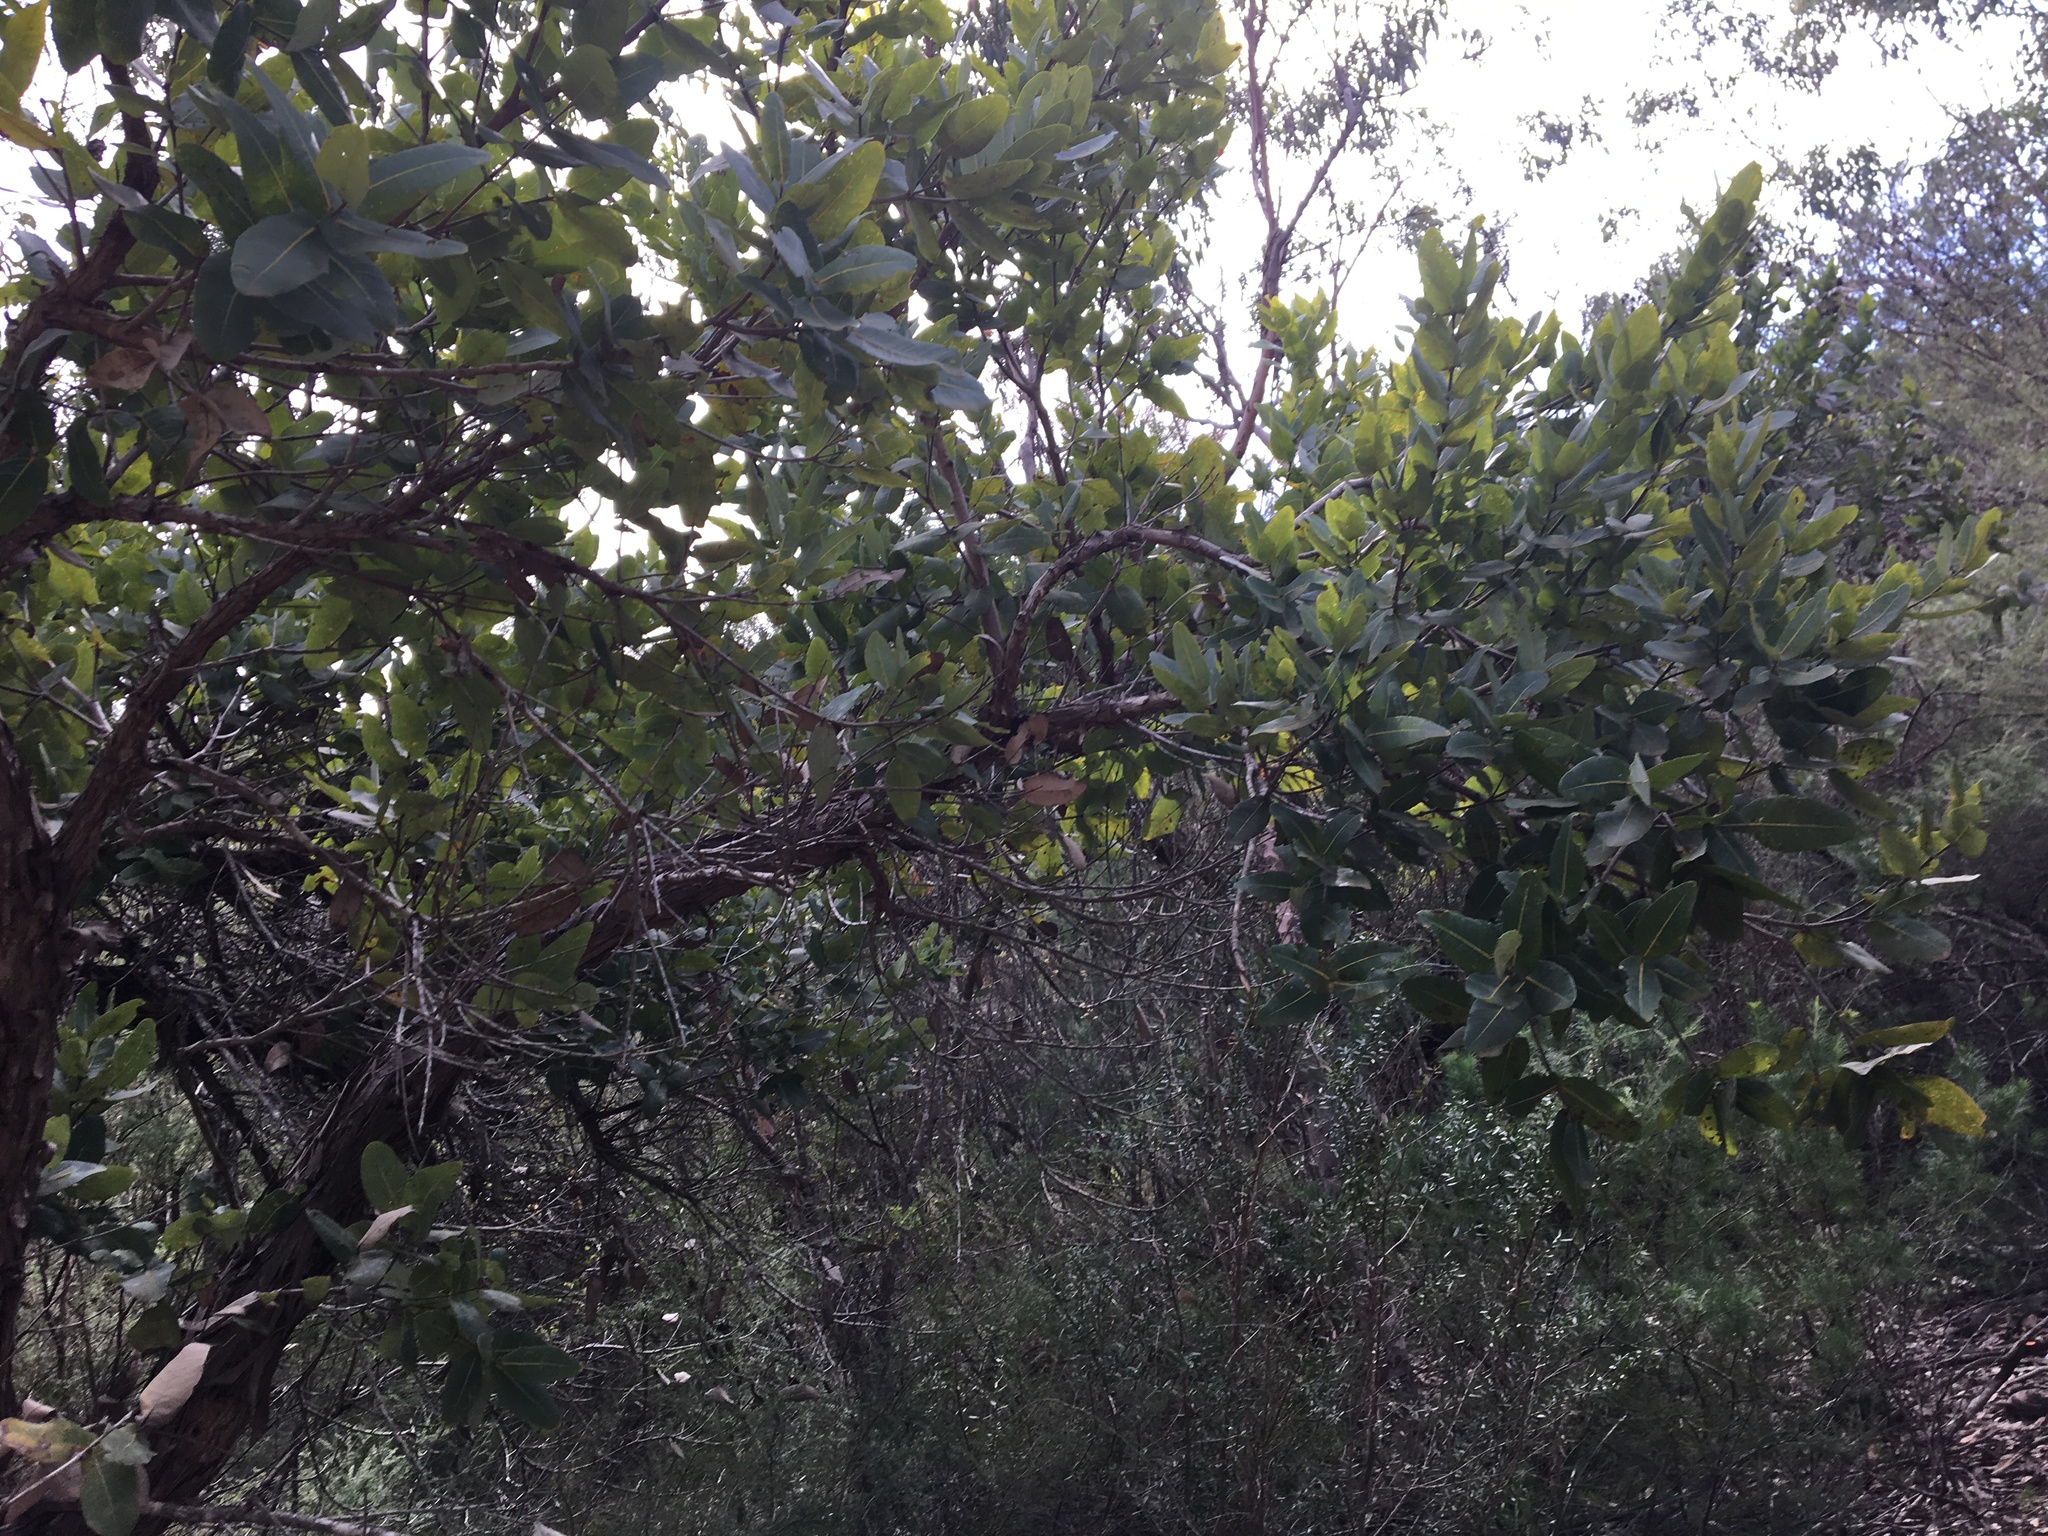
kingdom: Plantae
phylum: Tracheophyta
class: Magnoliopsida
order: Myrtales
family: Myrtaceae
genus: Angophora
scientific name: Angophora hispida
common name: Dwarf-apple
